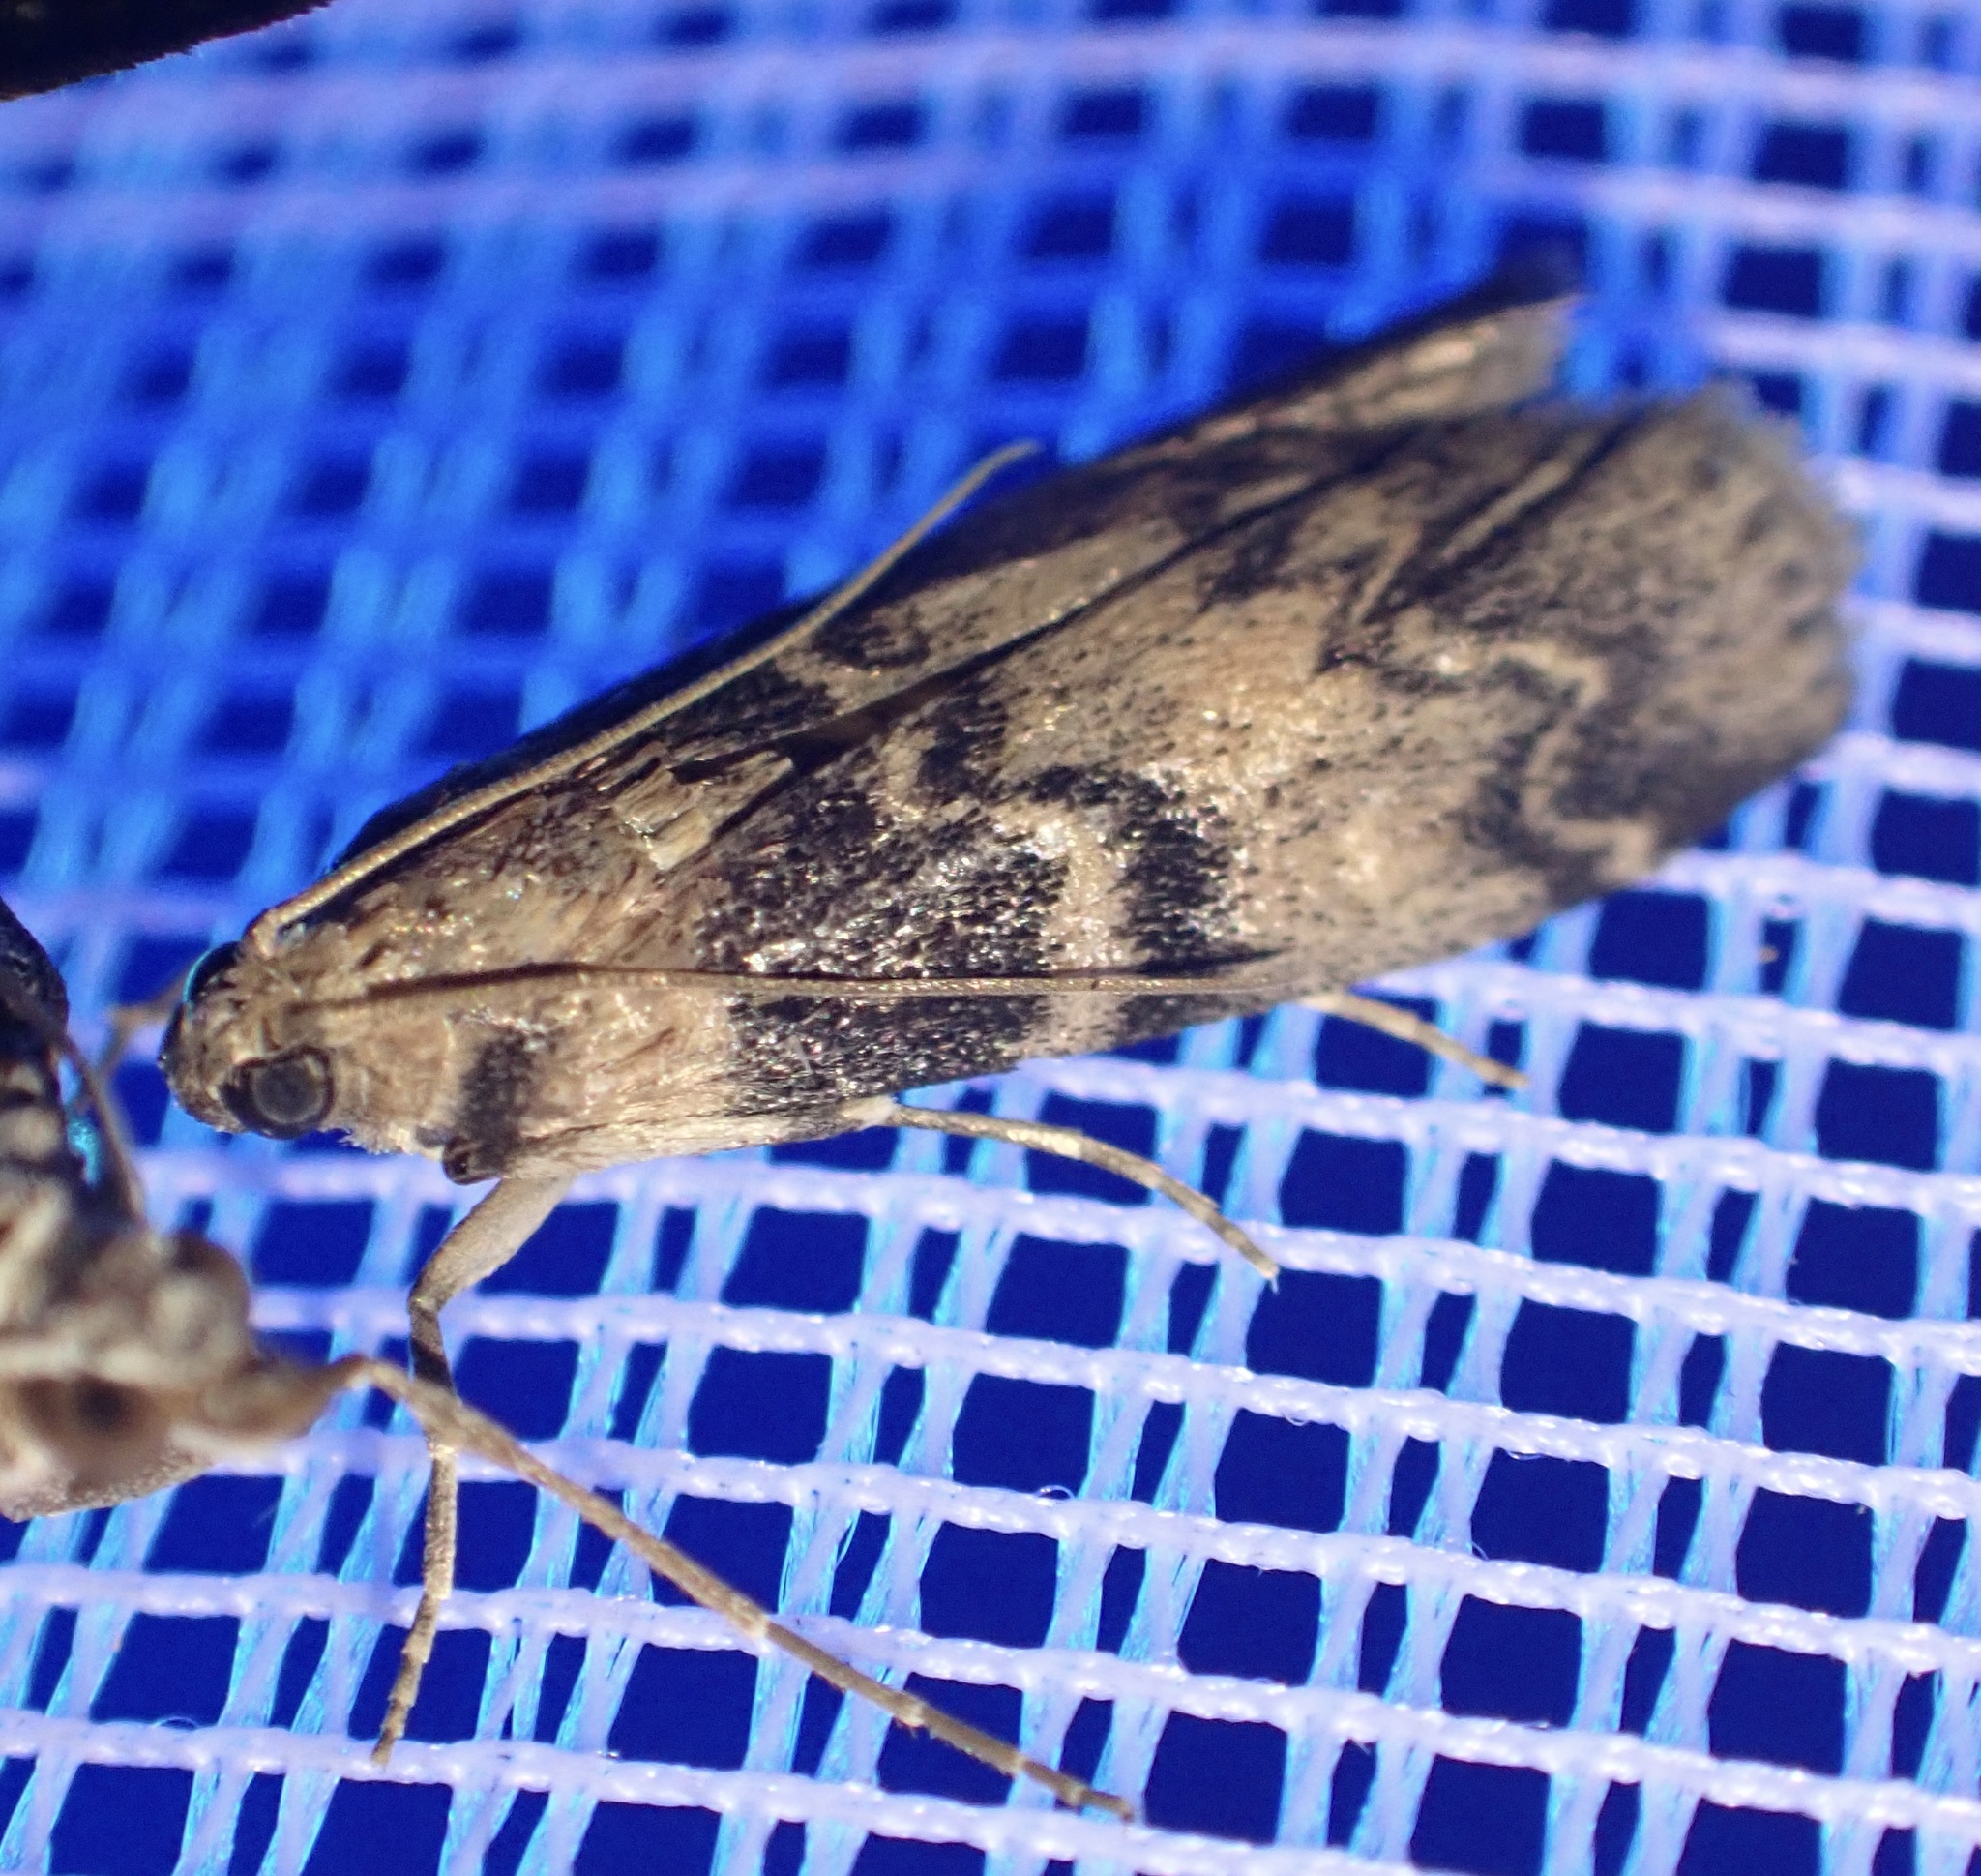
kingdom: Animalia
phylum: Arthropoda
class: Insecta
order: Lepidoptera
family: Pyralidae
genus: Euzophera
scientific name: Euzophera pinguis
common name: Ash-bark knot-horn
